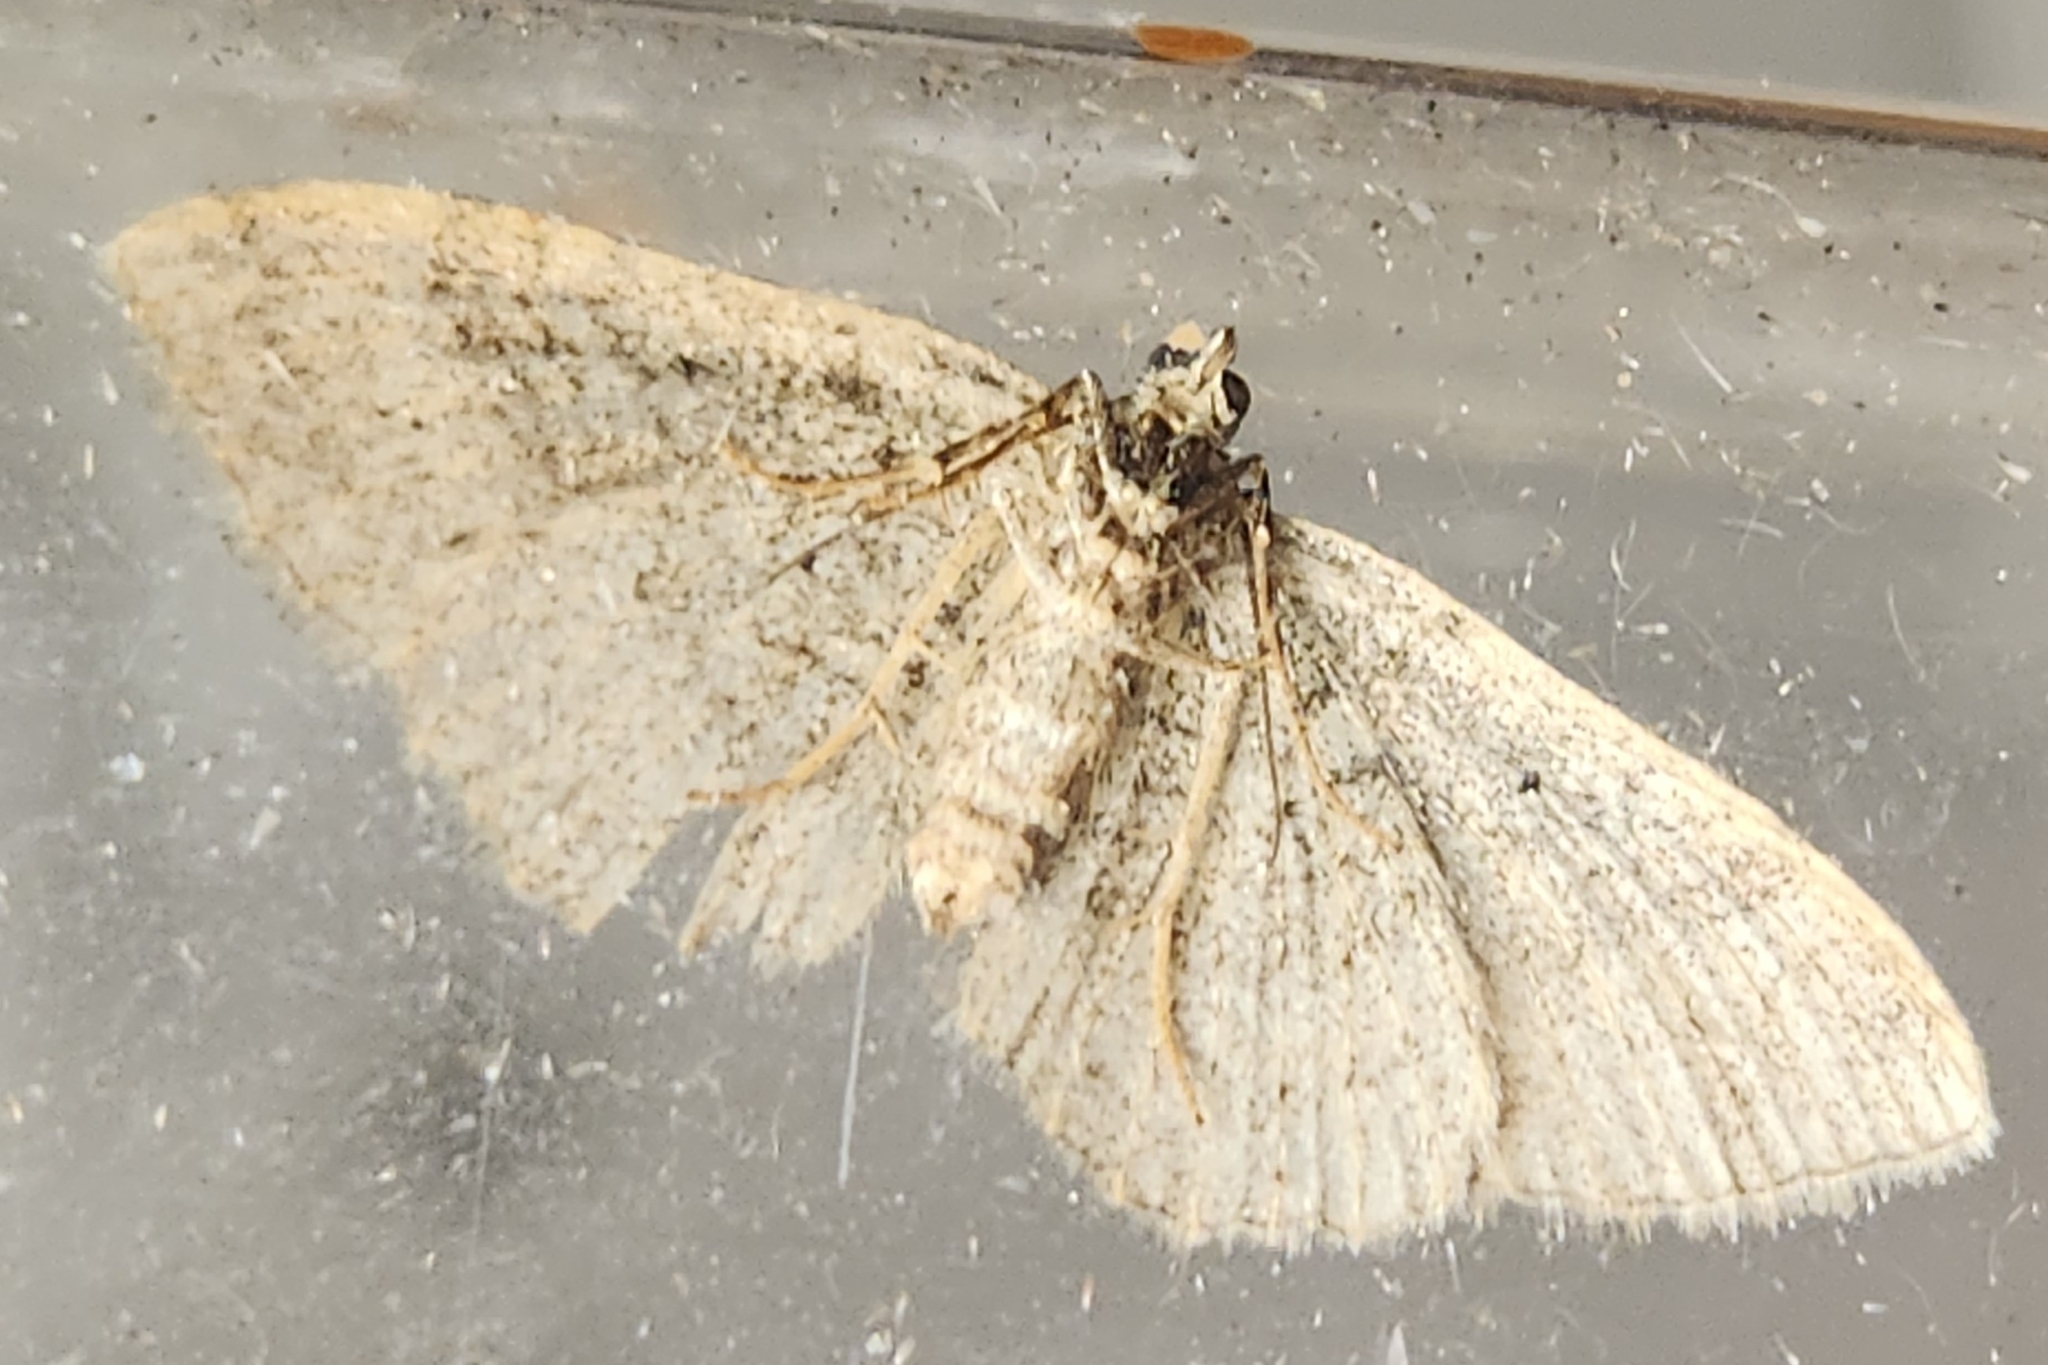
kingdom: Animalia
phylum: Arthropoda
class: Insecta
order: Lepidoptera
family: Geometridae
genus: Costaconvexa
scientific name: Costaconvexa centrostrigaria
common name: Bent-line carpet
